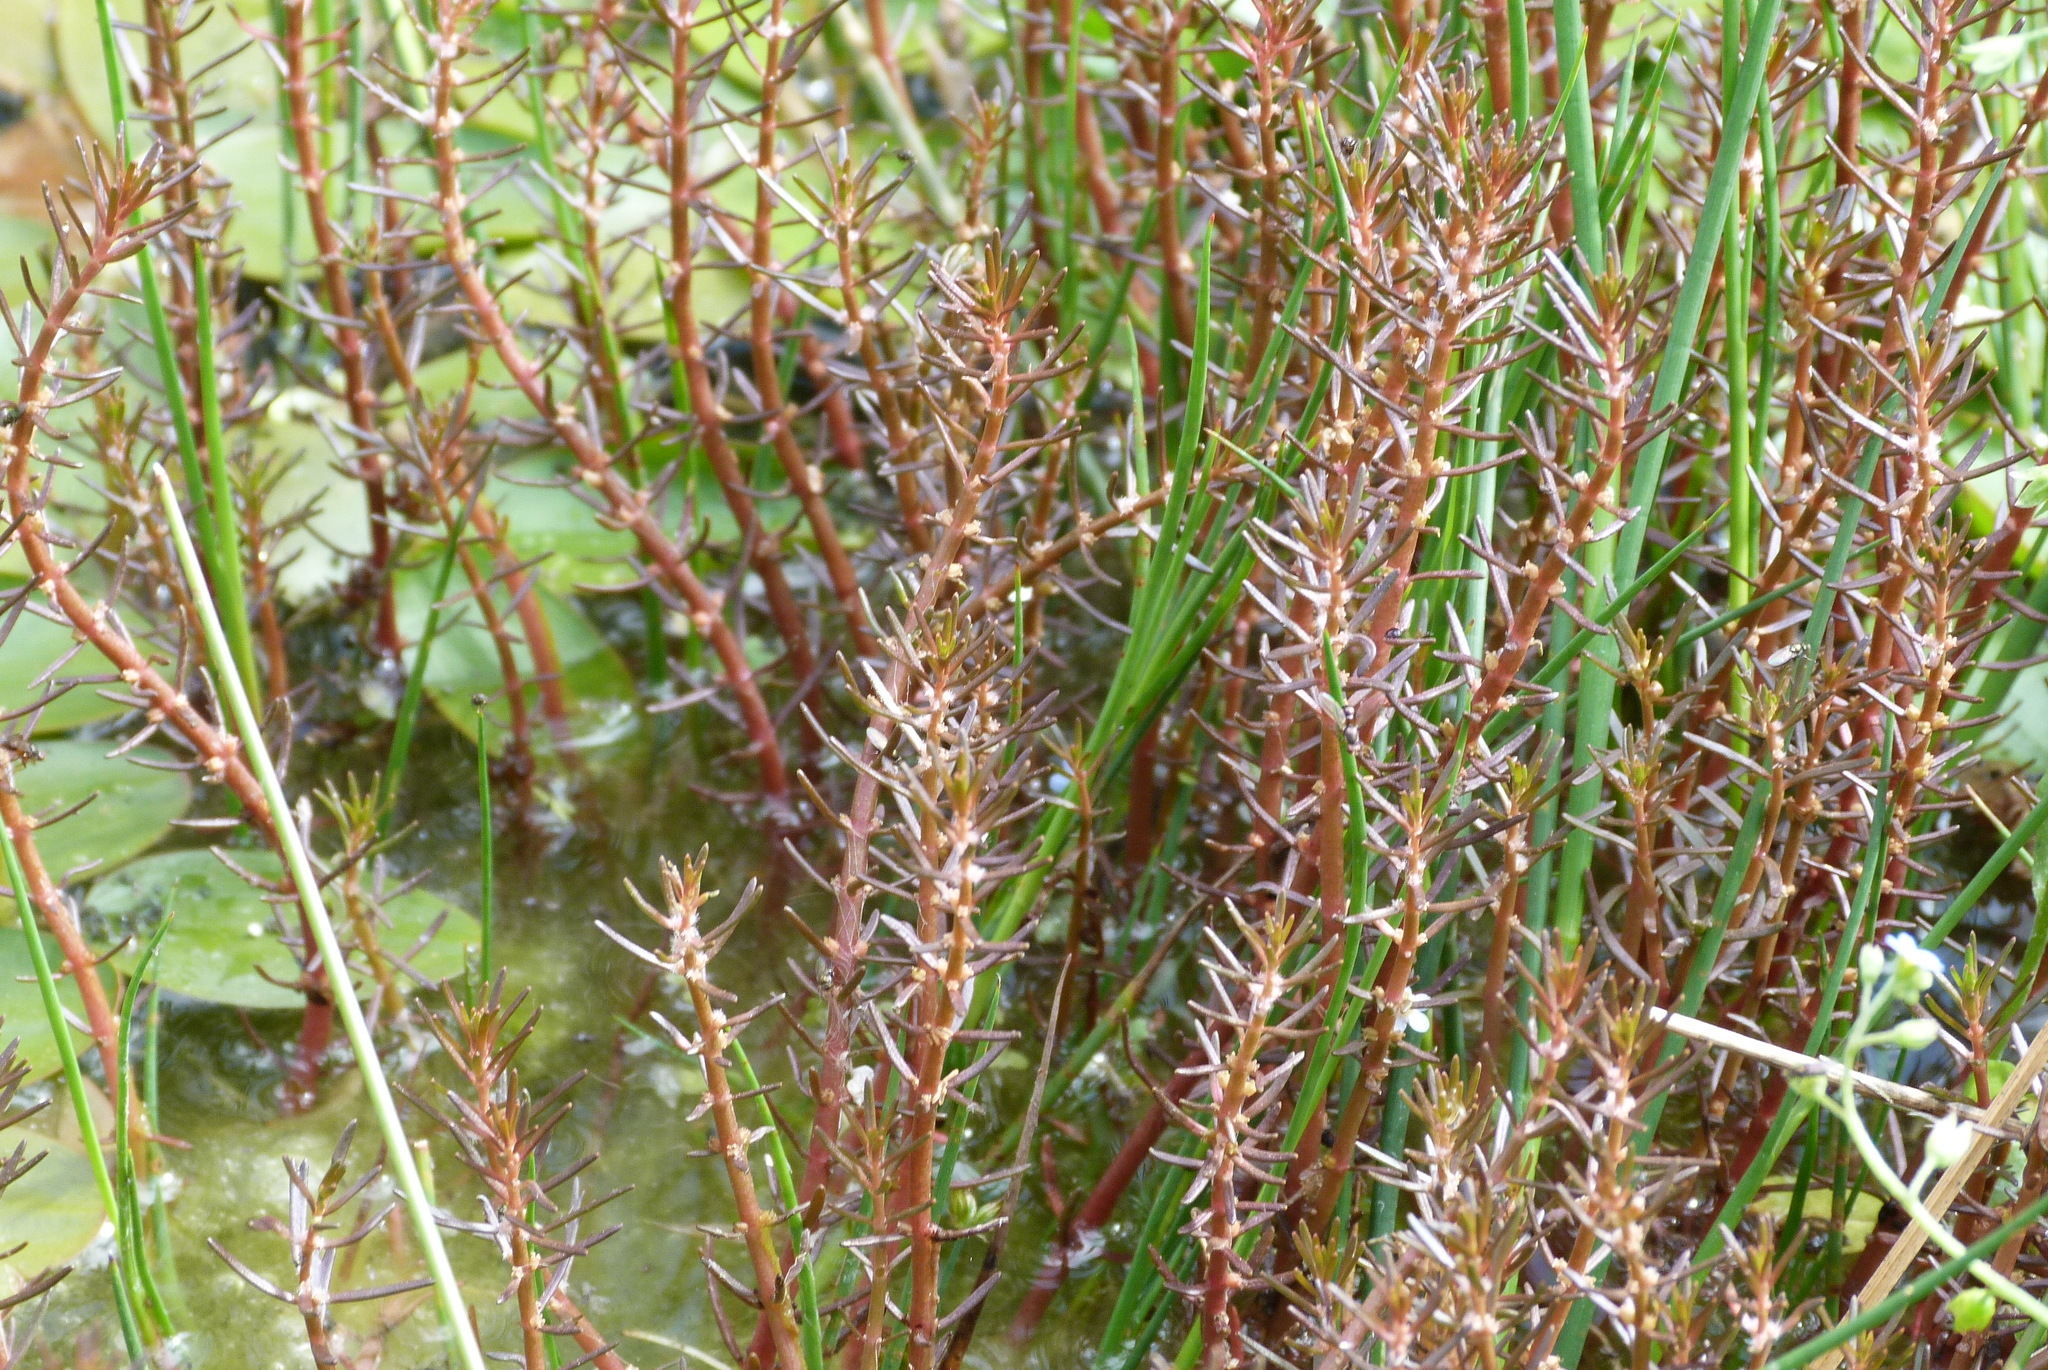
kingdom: Plantae
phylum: Tracheophyta
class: Magnoliopsida
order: Saxifragales
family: Haloragaceae
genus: Myriophyllum
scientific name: Myriophyllum propinquum
